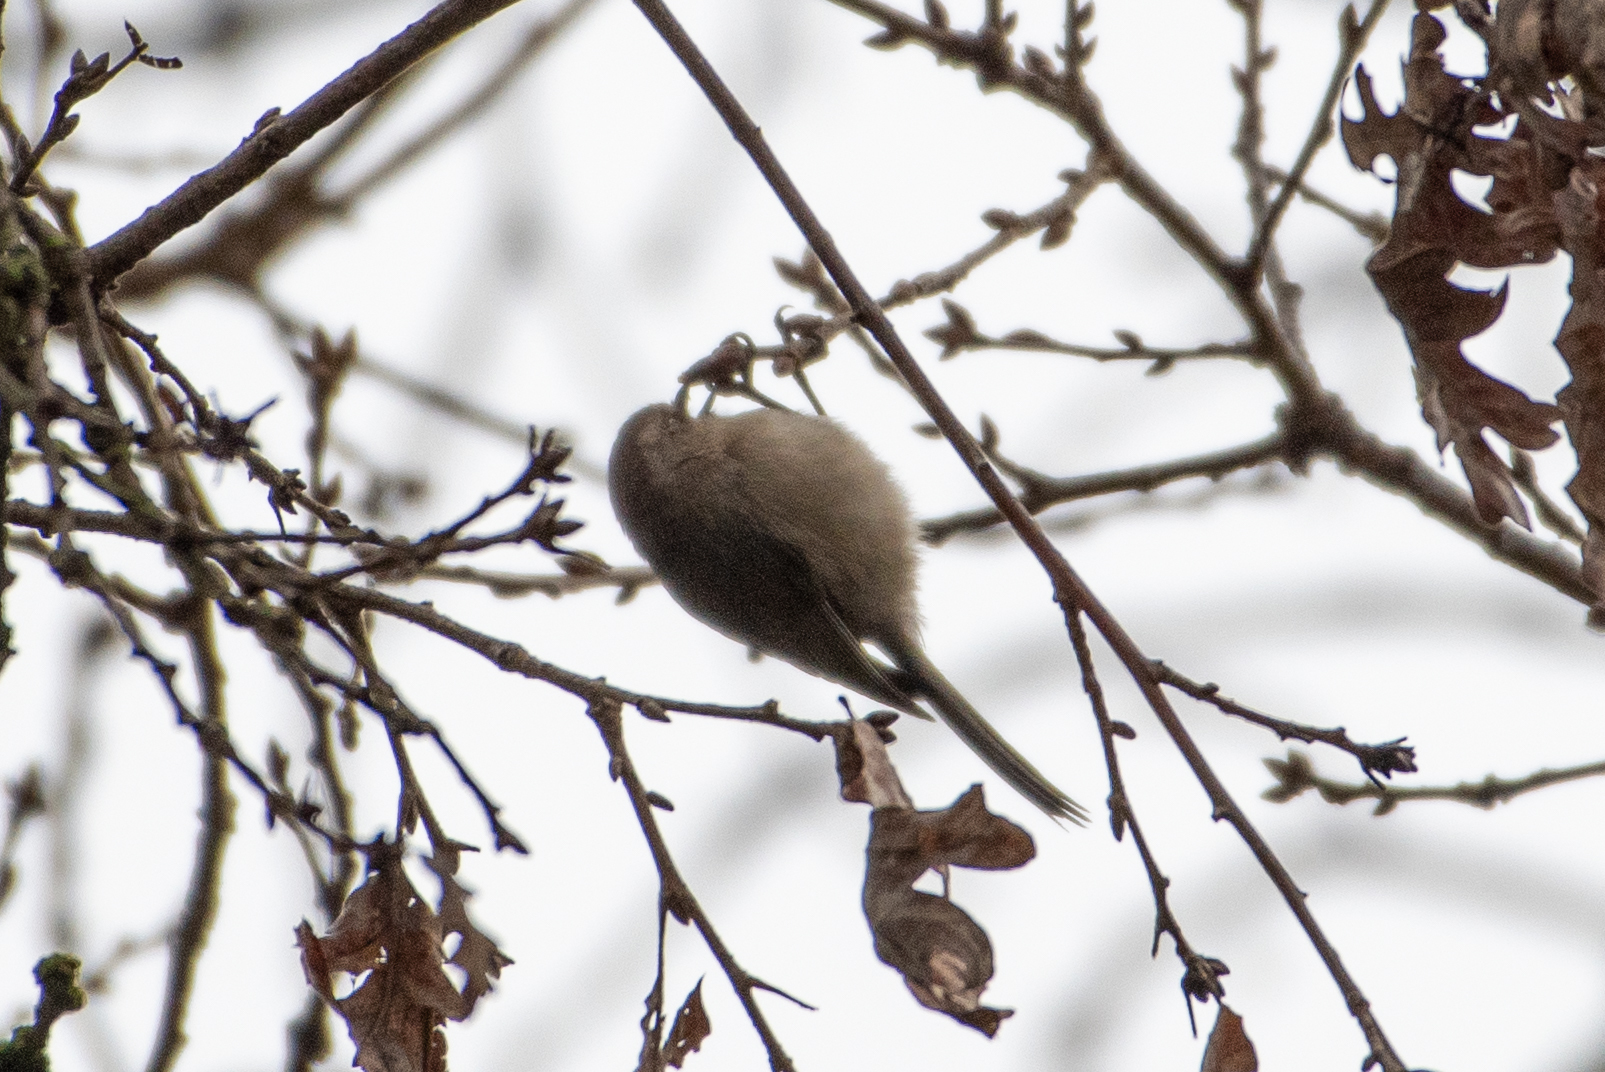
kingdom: Animalia
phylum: Chordata
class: Aves
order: Passeriformes
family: Aegithalidae
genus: Psaltriparus
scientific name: Psaltriparus minimus
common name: American bushtit
